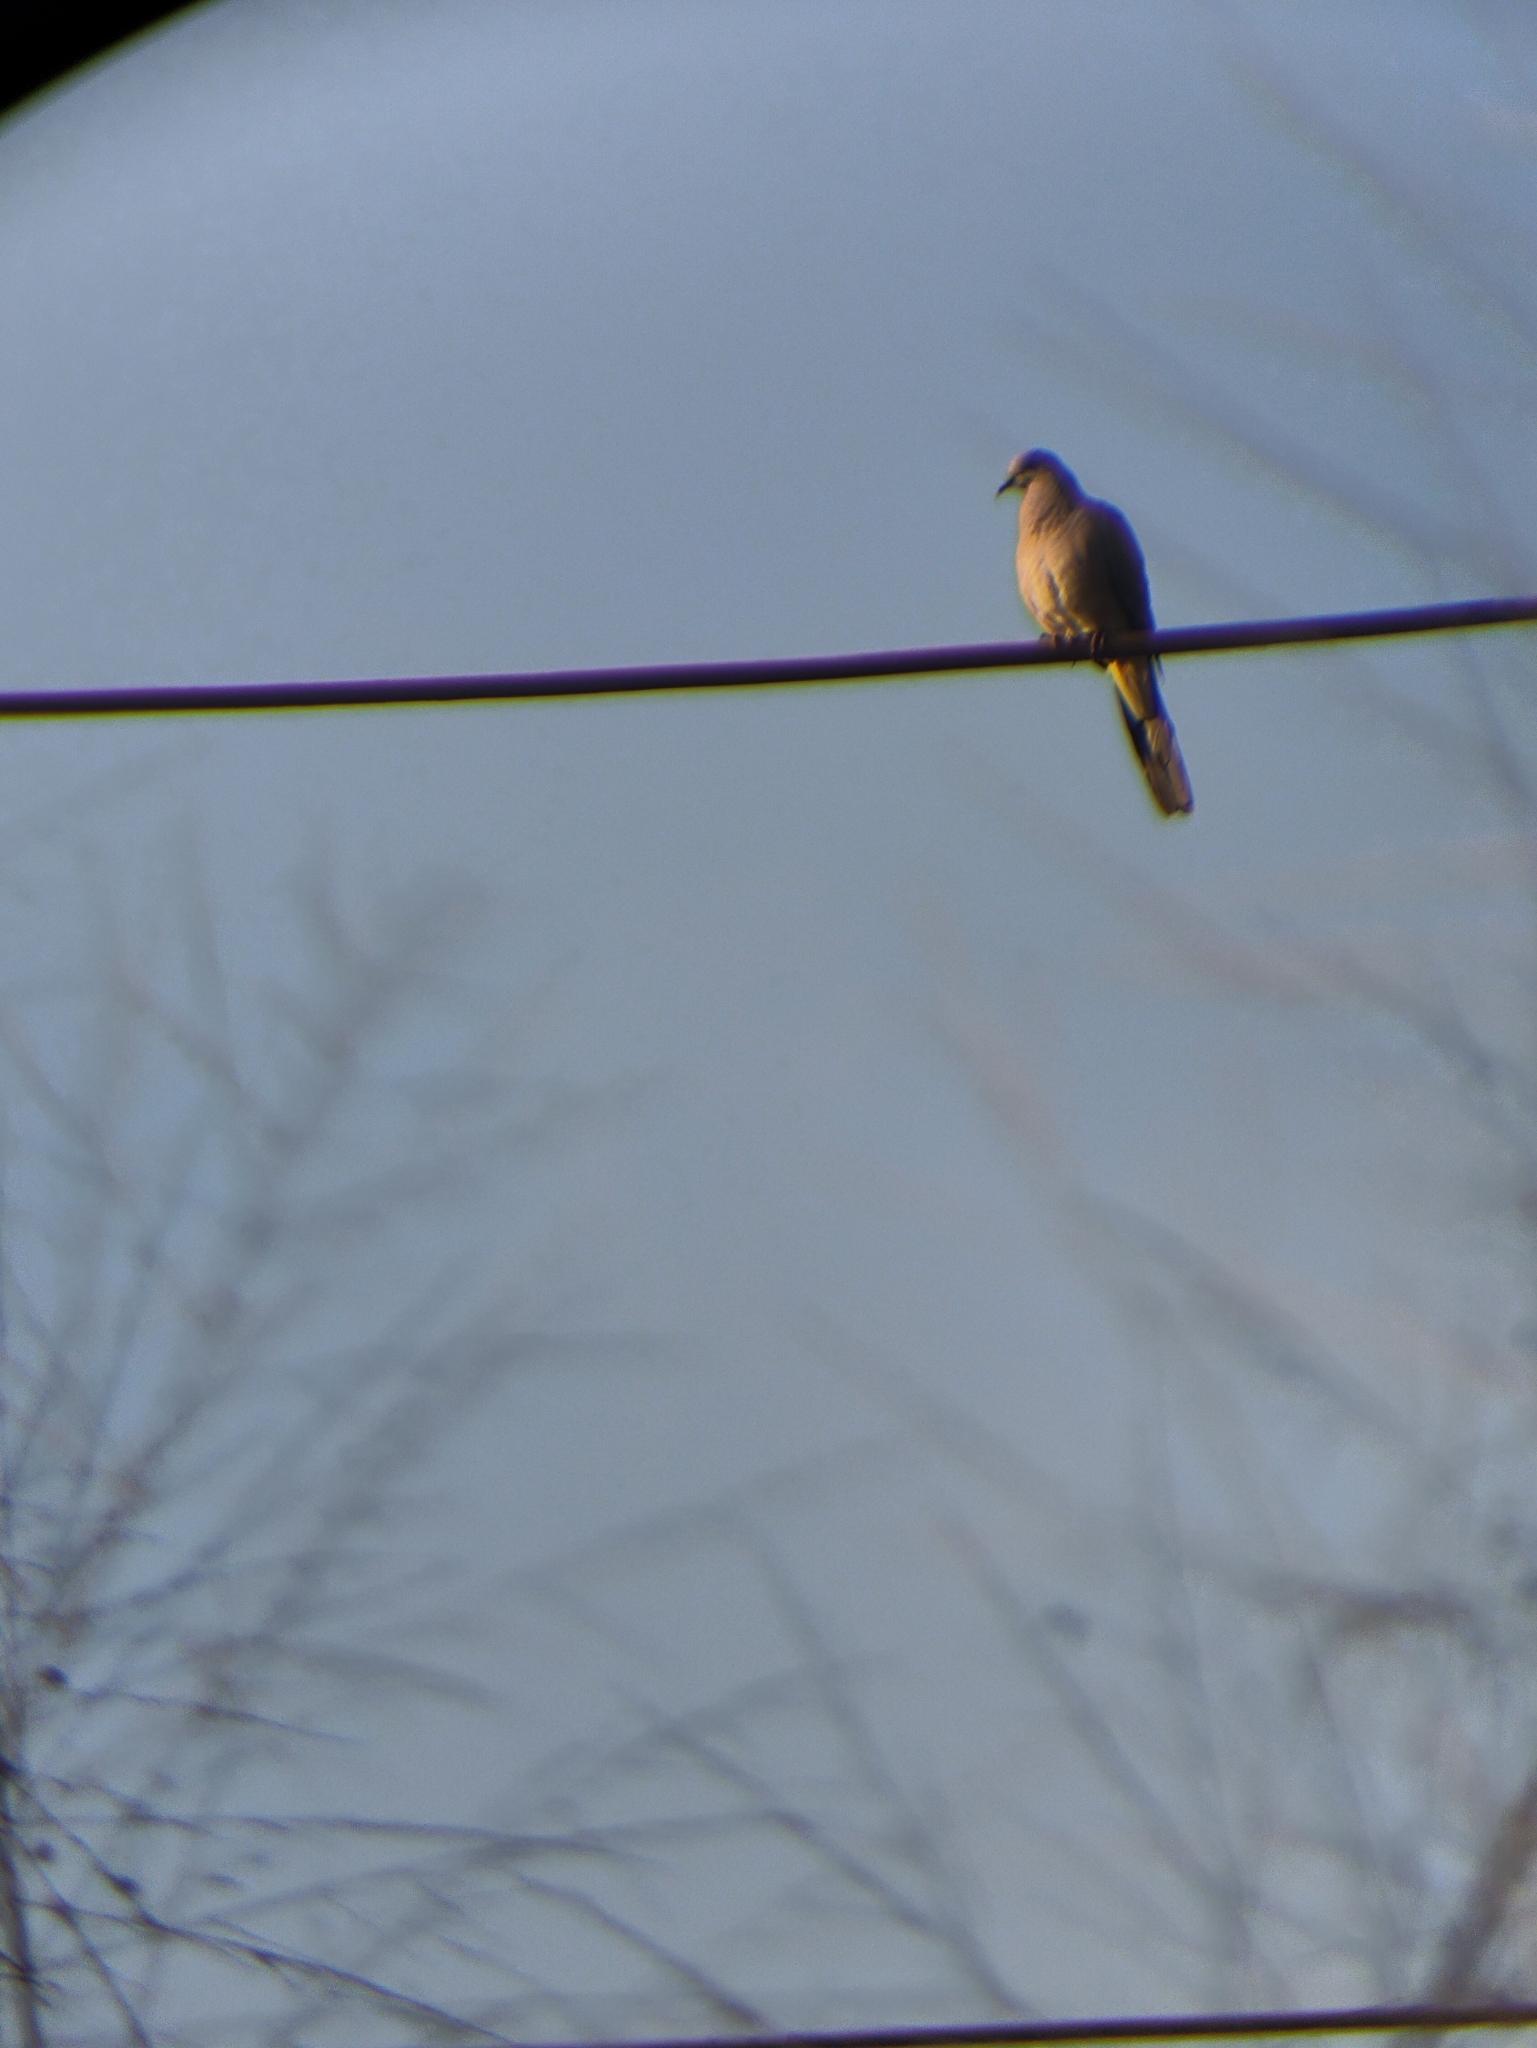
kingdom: Animalia
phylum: Chordata
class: Aves
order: Columbiformes
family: Columbidae
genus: Spilopelia
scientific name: Spilopelia chinensis
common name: Spotted dove
